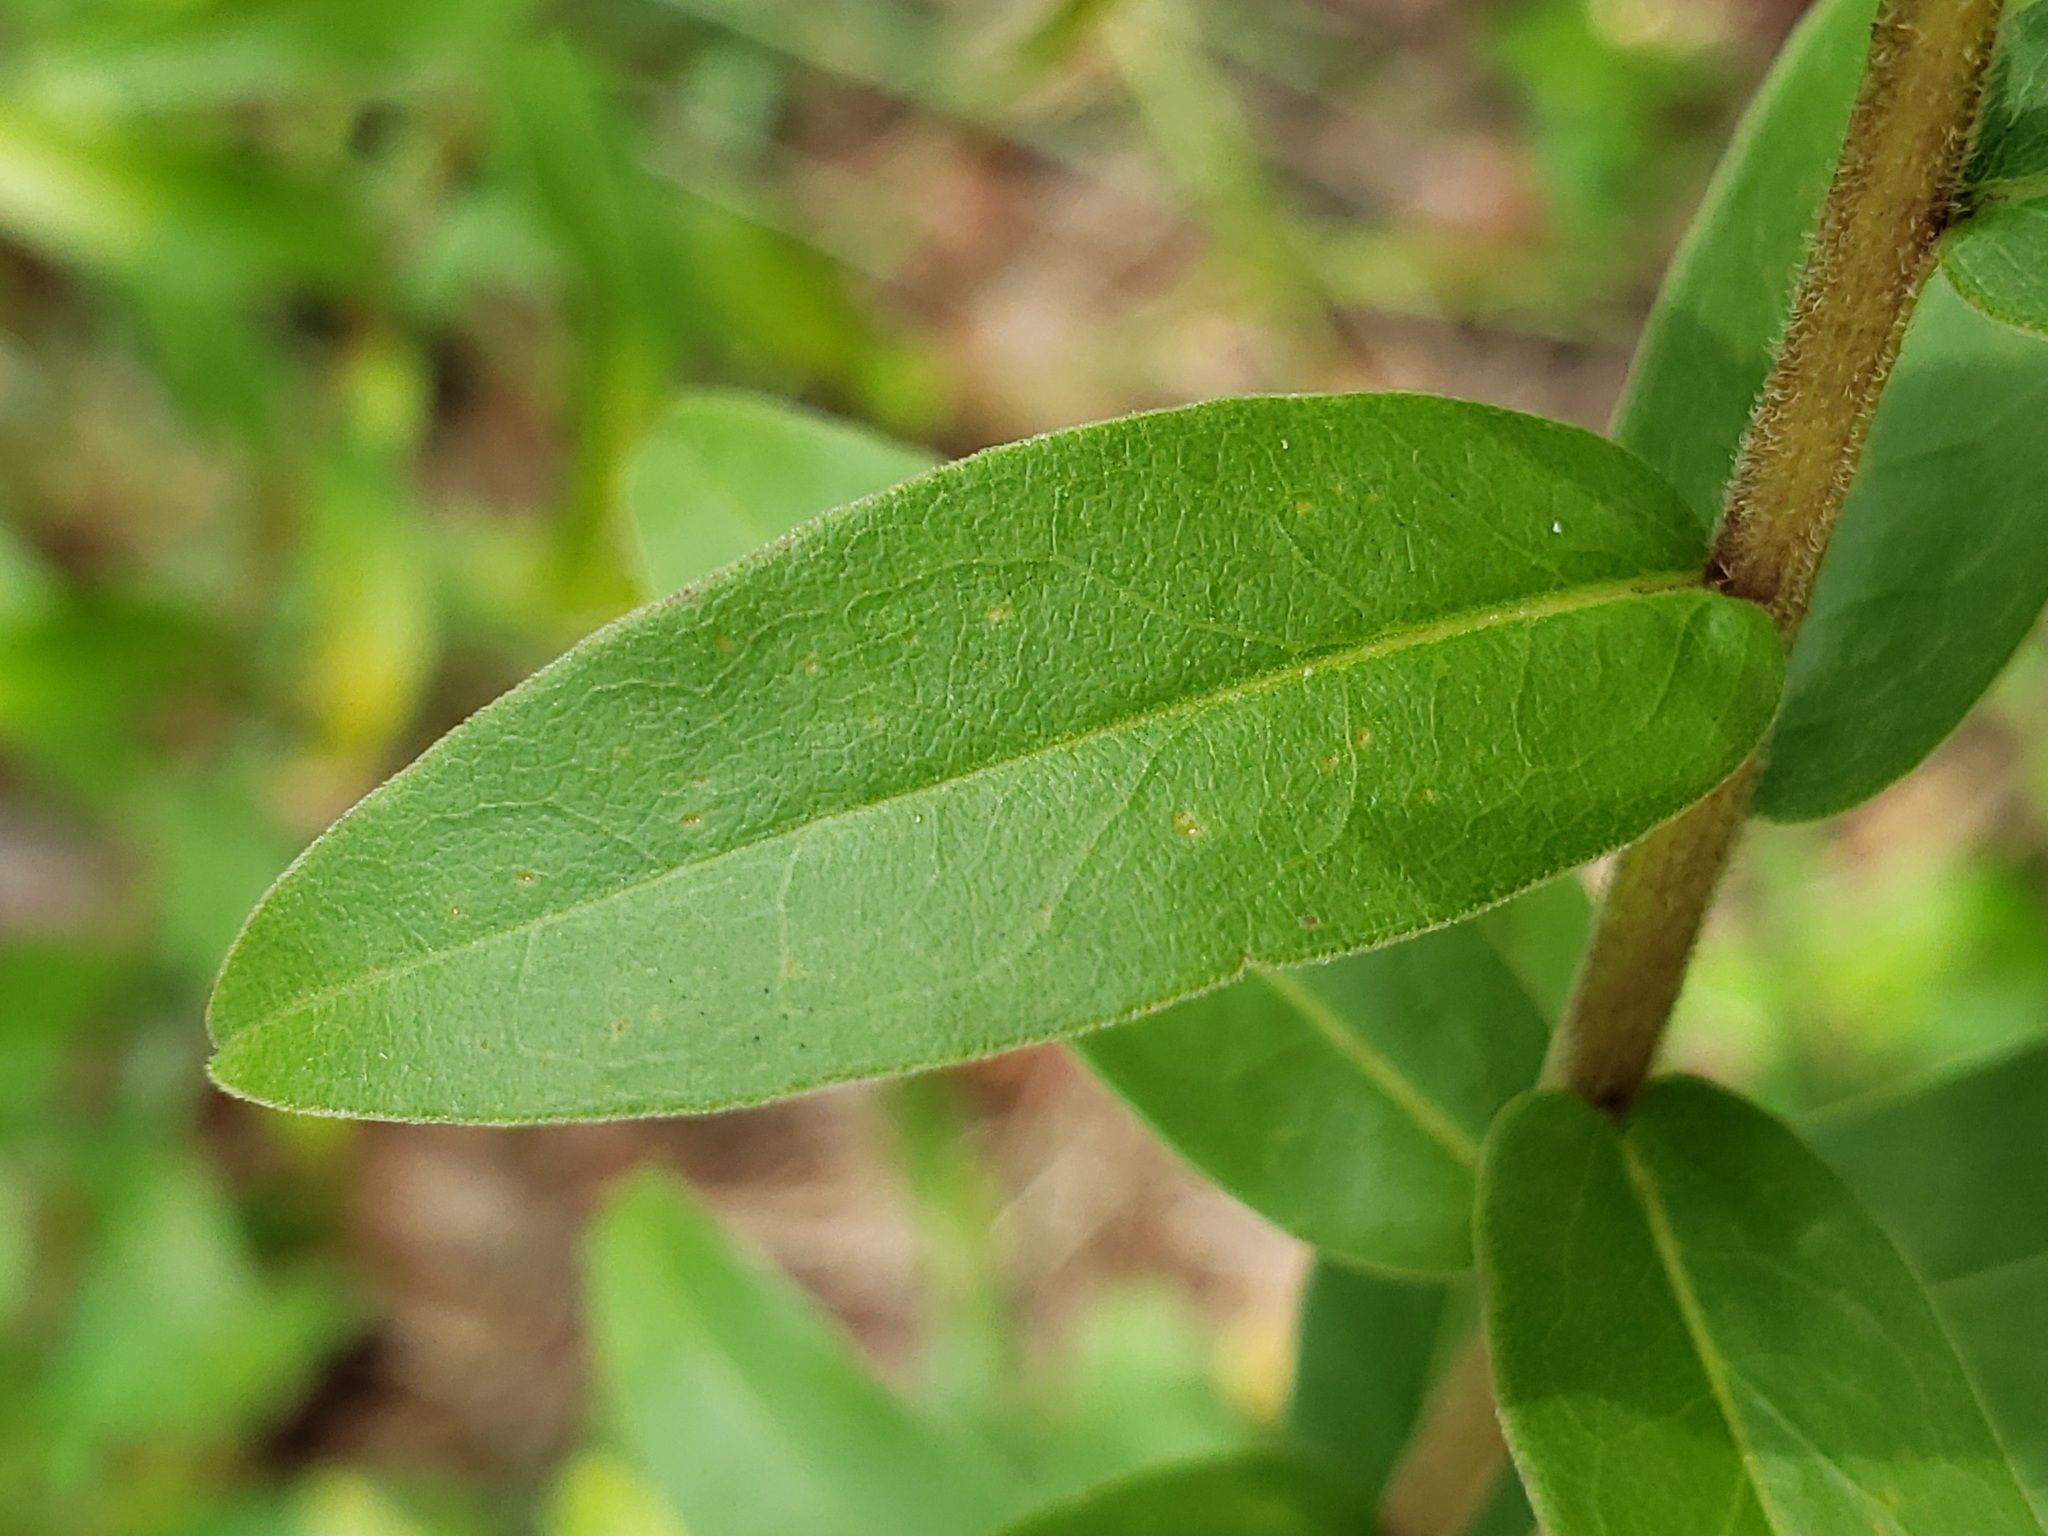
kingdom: Plantae
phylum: Tracheophyta
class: Magnoliopsida
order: Asterales
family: Asteraceae
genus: Solidago
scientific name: Solidago chapmanii
